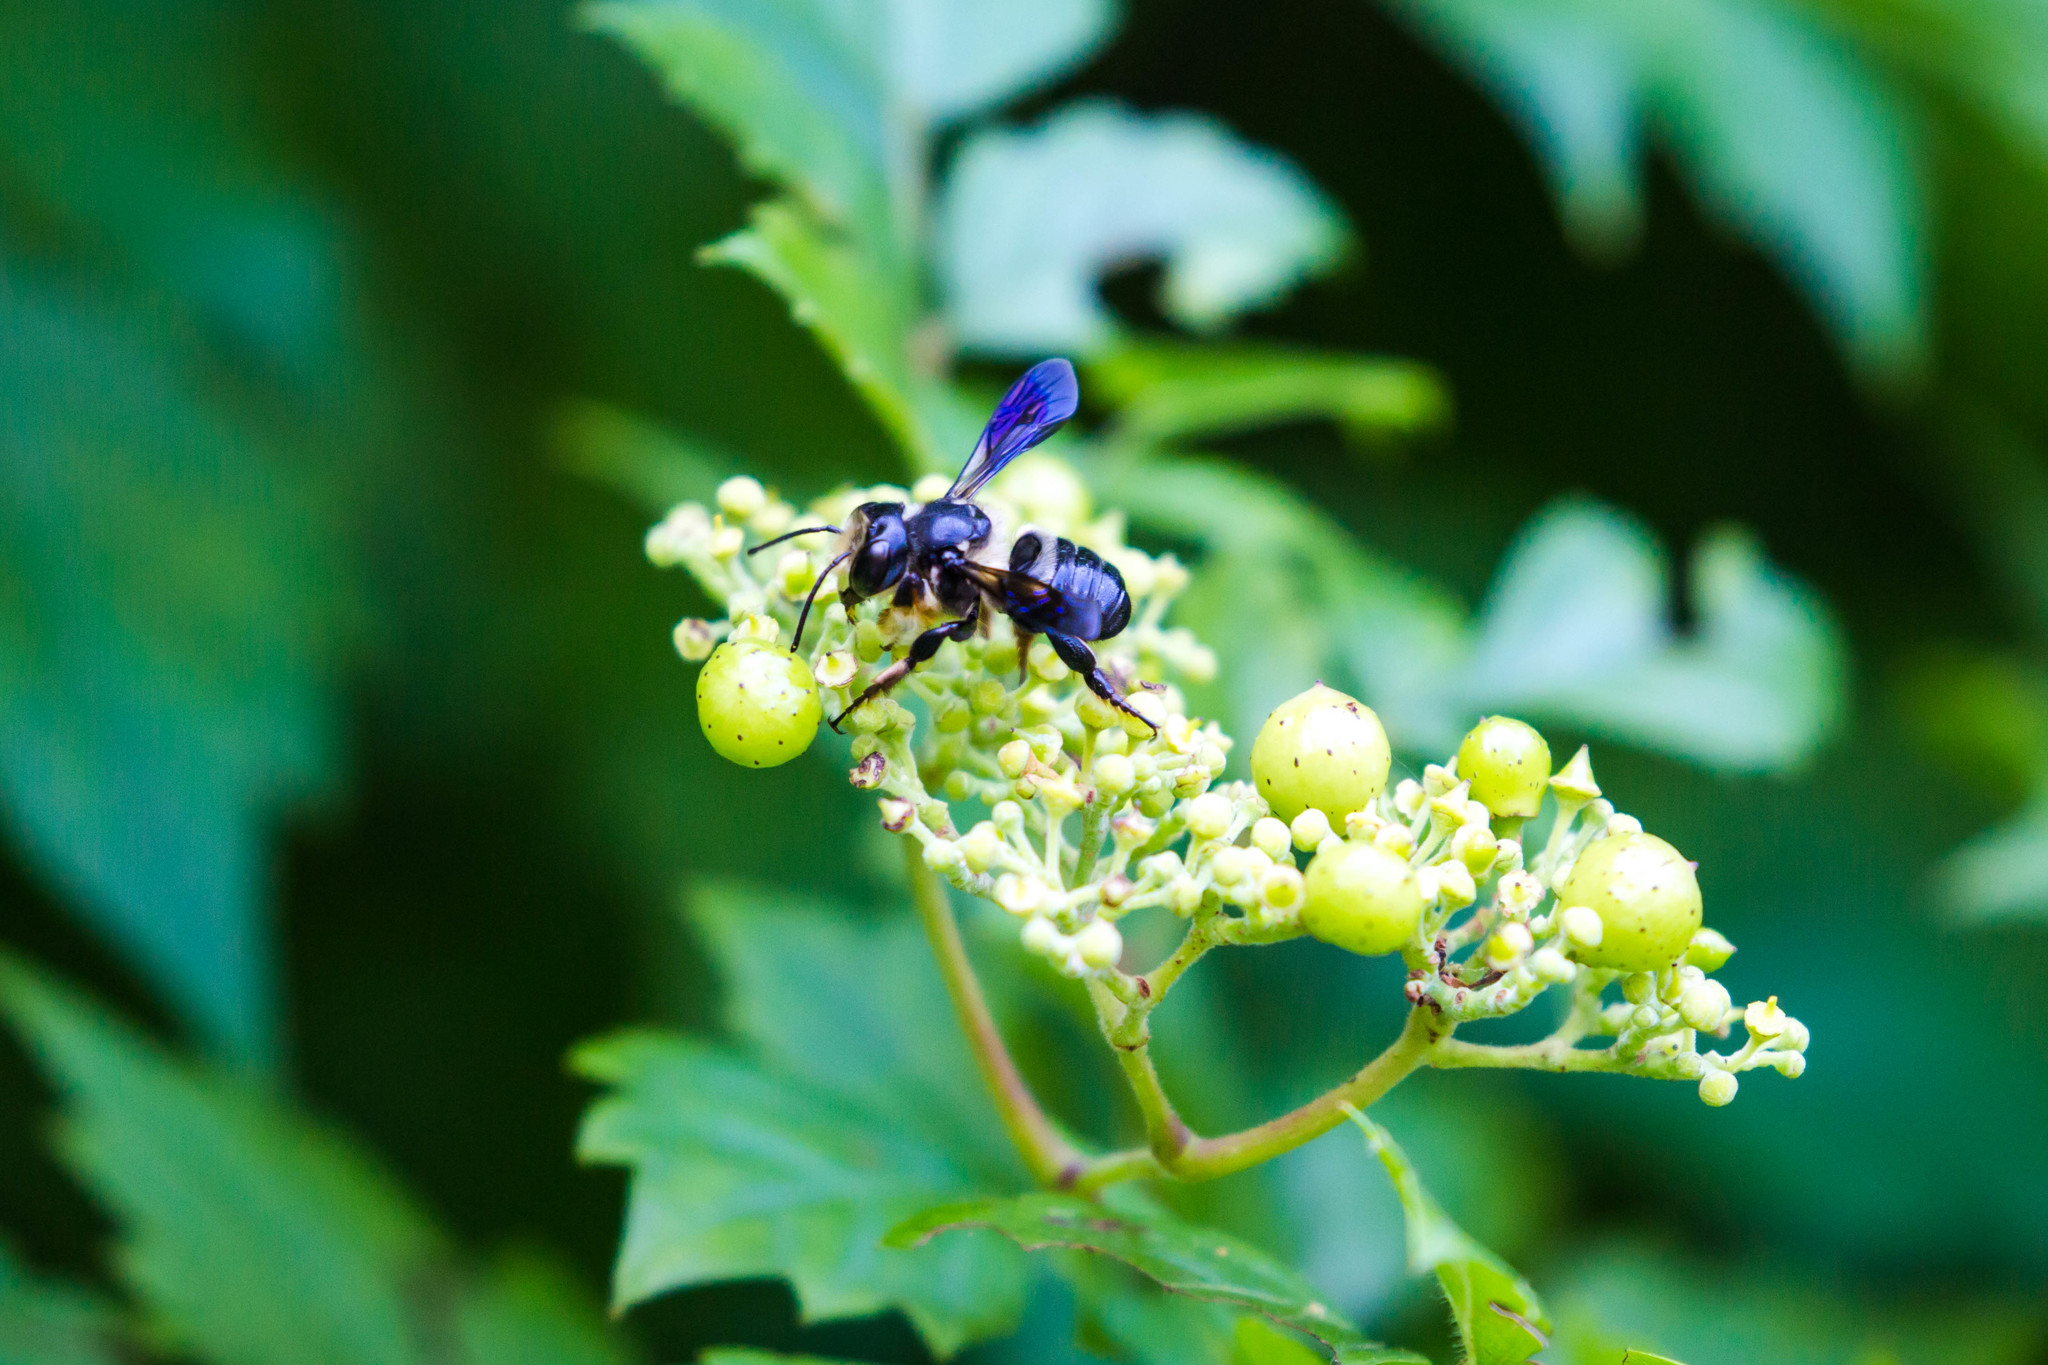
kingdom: Animalia
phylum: Arthropoda
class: Insecta
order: Hymenoptera
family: Megachilidae
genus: Megachile
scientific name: Megachile xylocopoides
